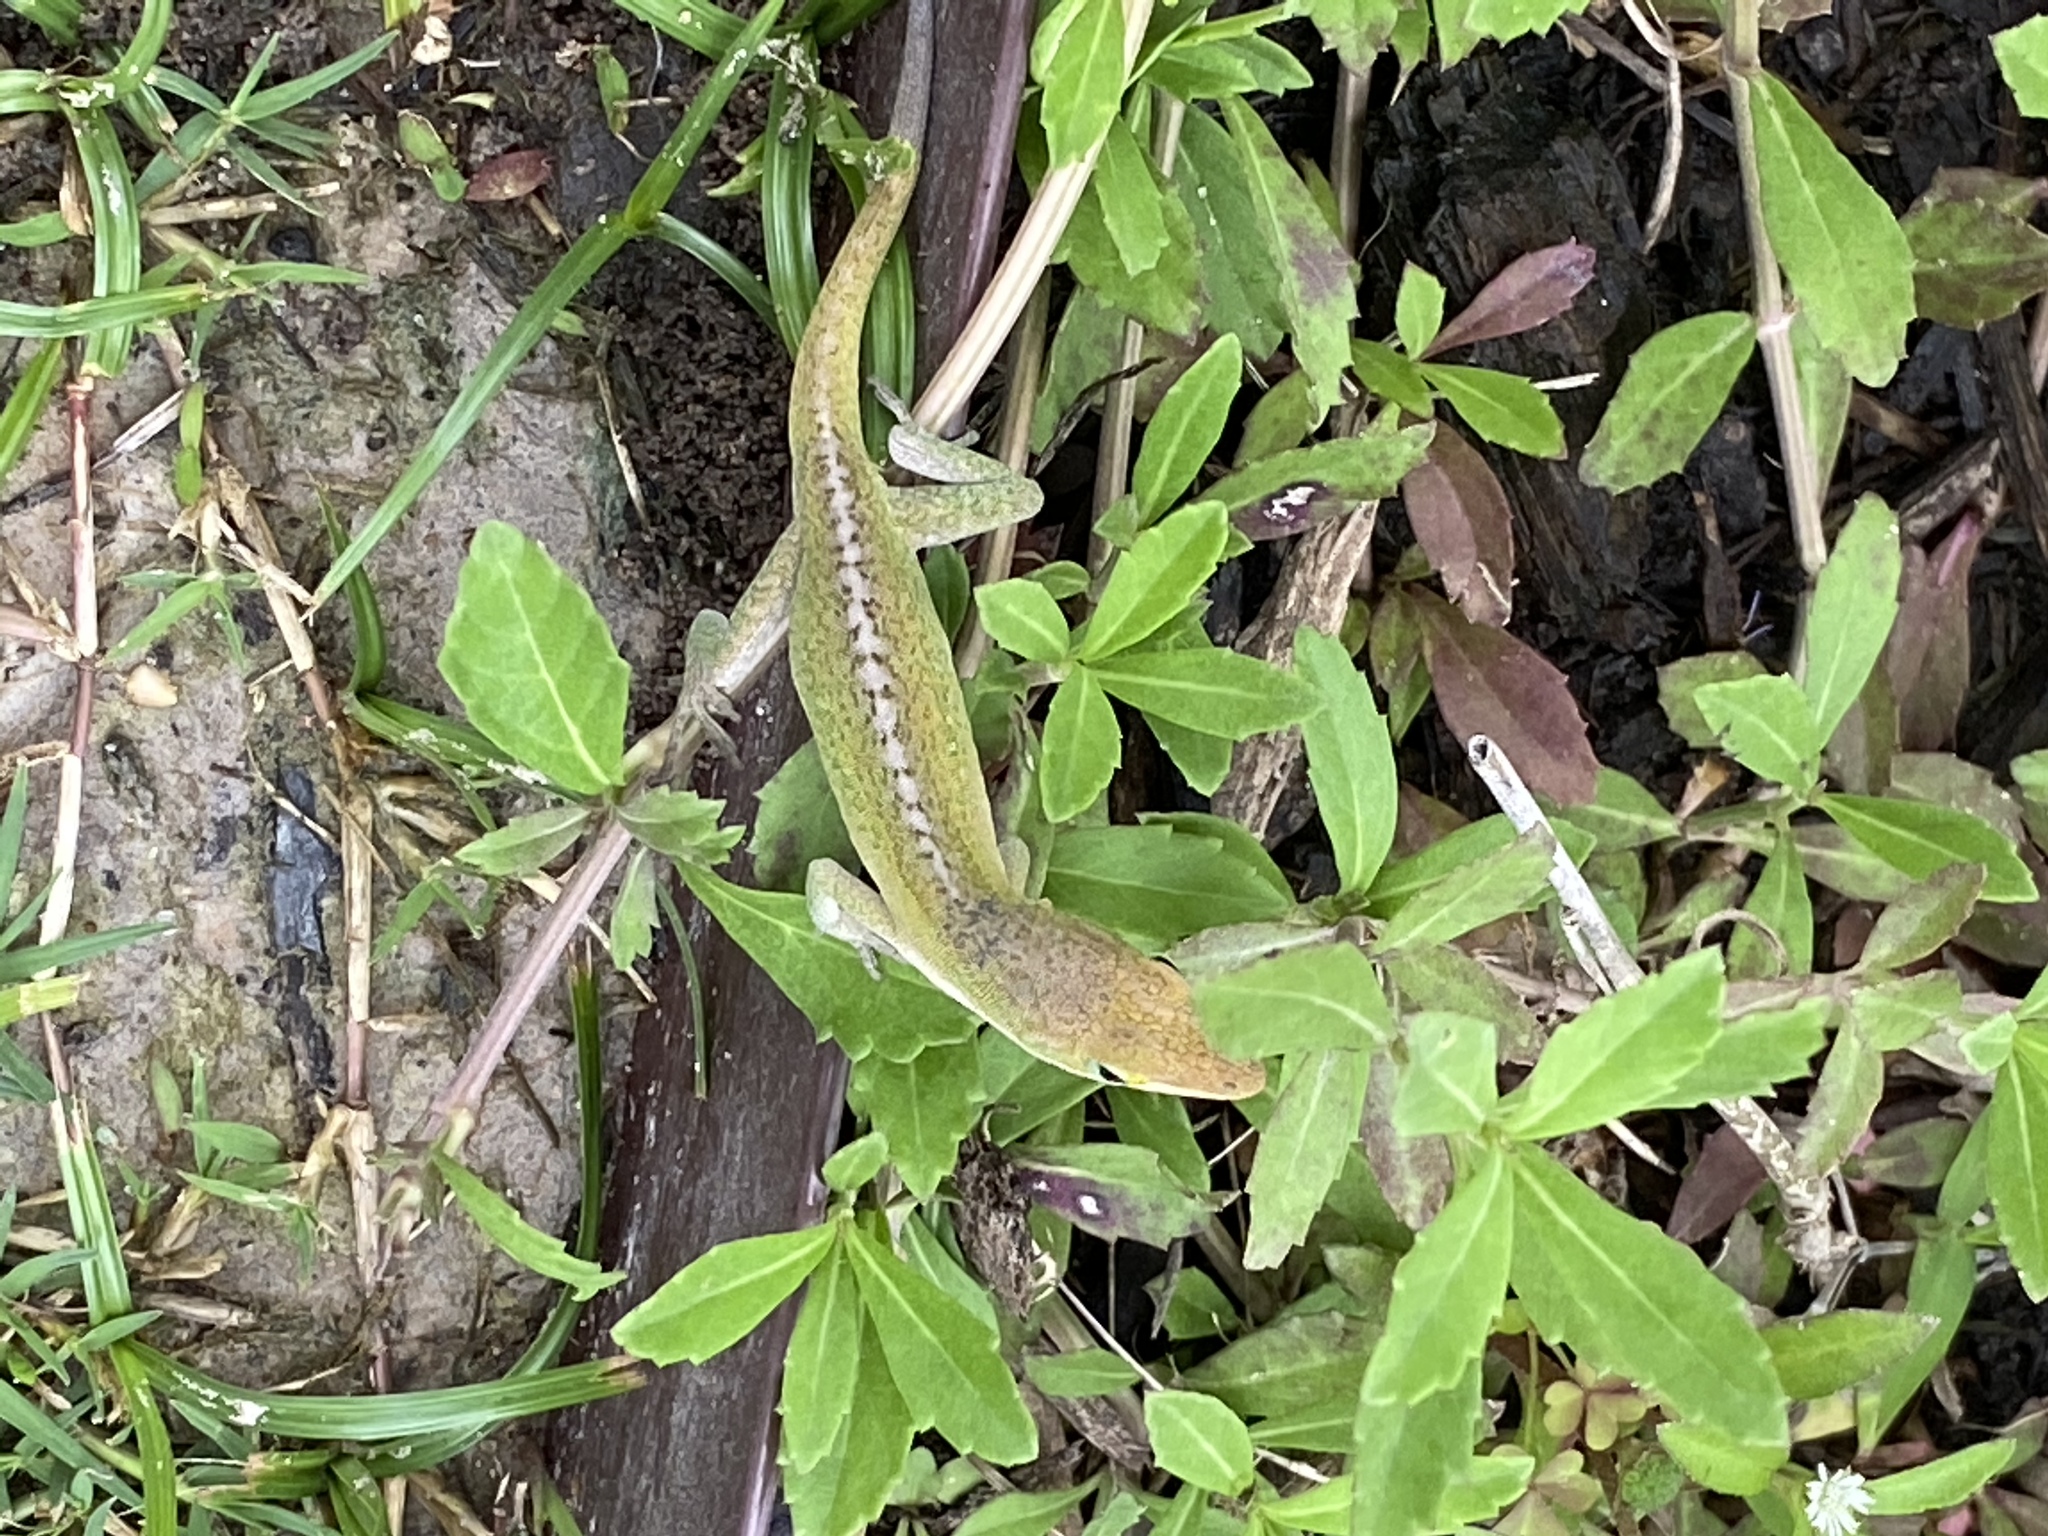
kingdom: Animalia
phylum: Chordata
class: Squamata
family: Dactyloidae
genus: Anolis
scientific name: Anolis carolinensis
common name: Green anole
